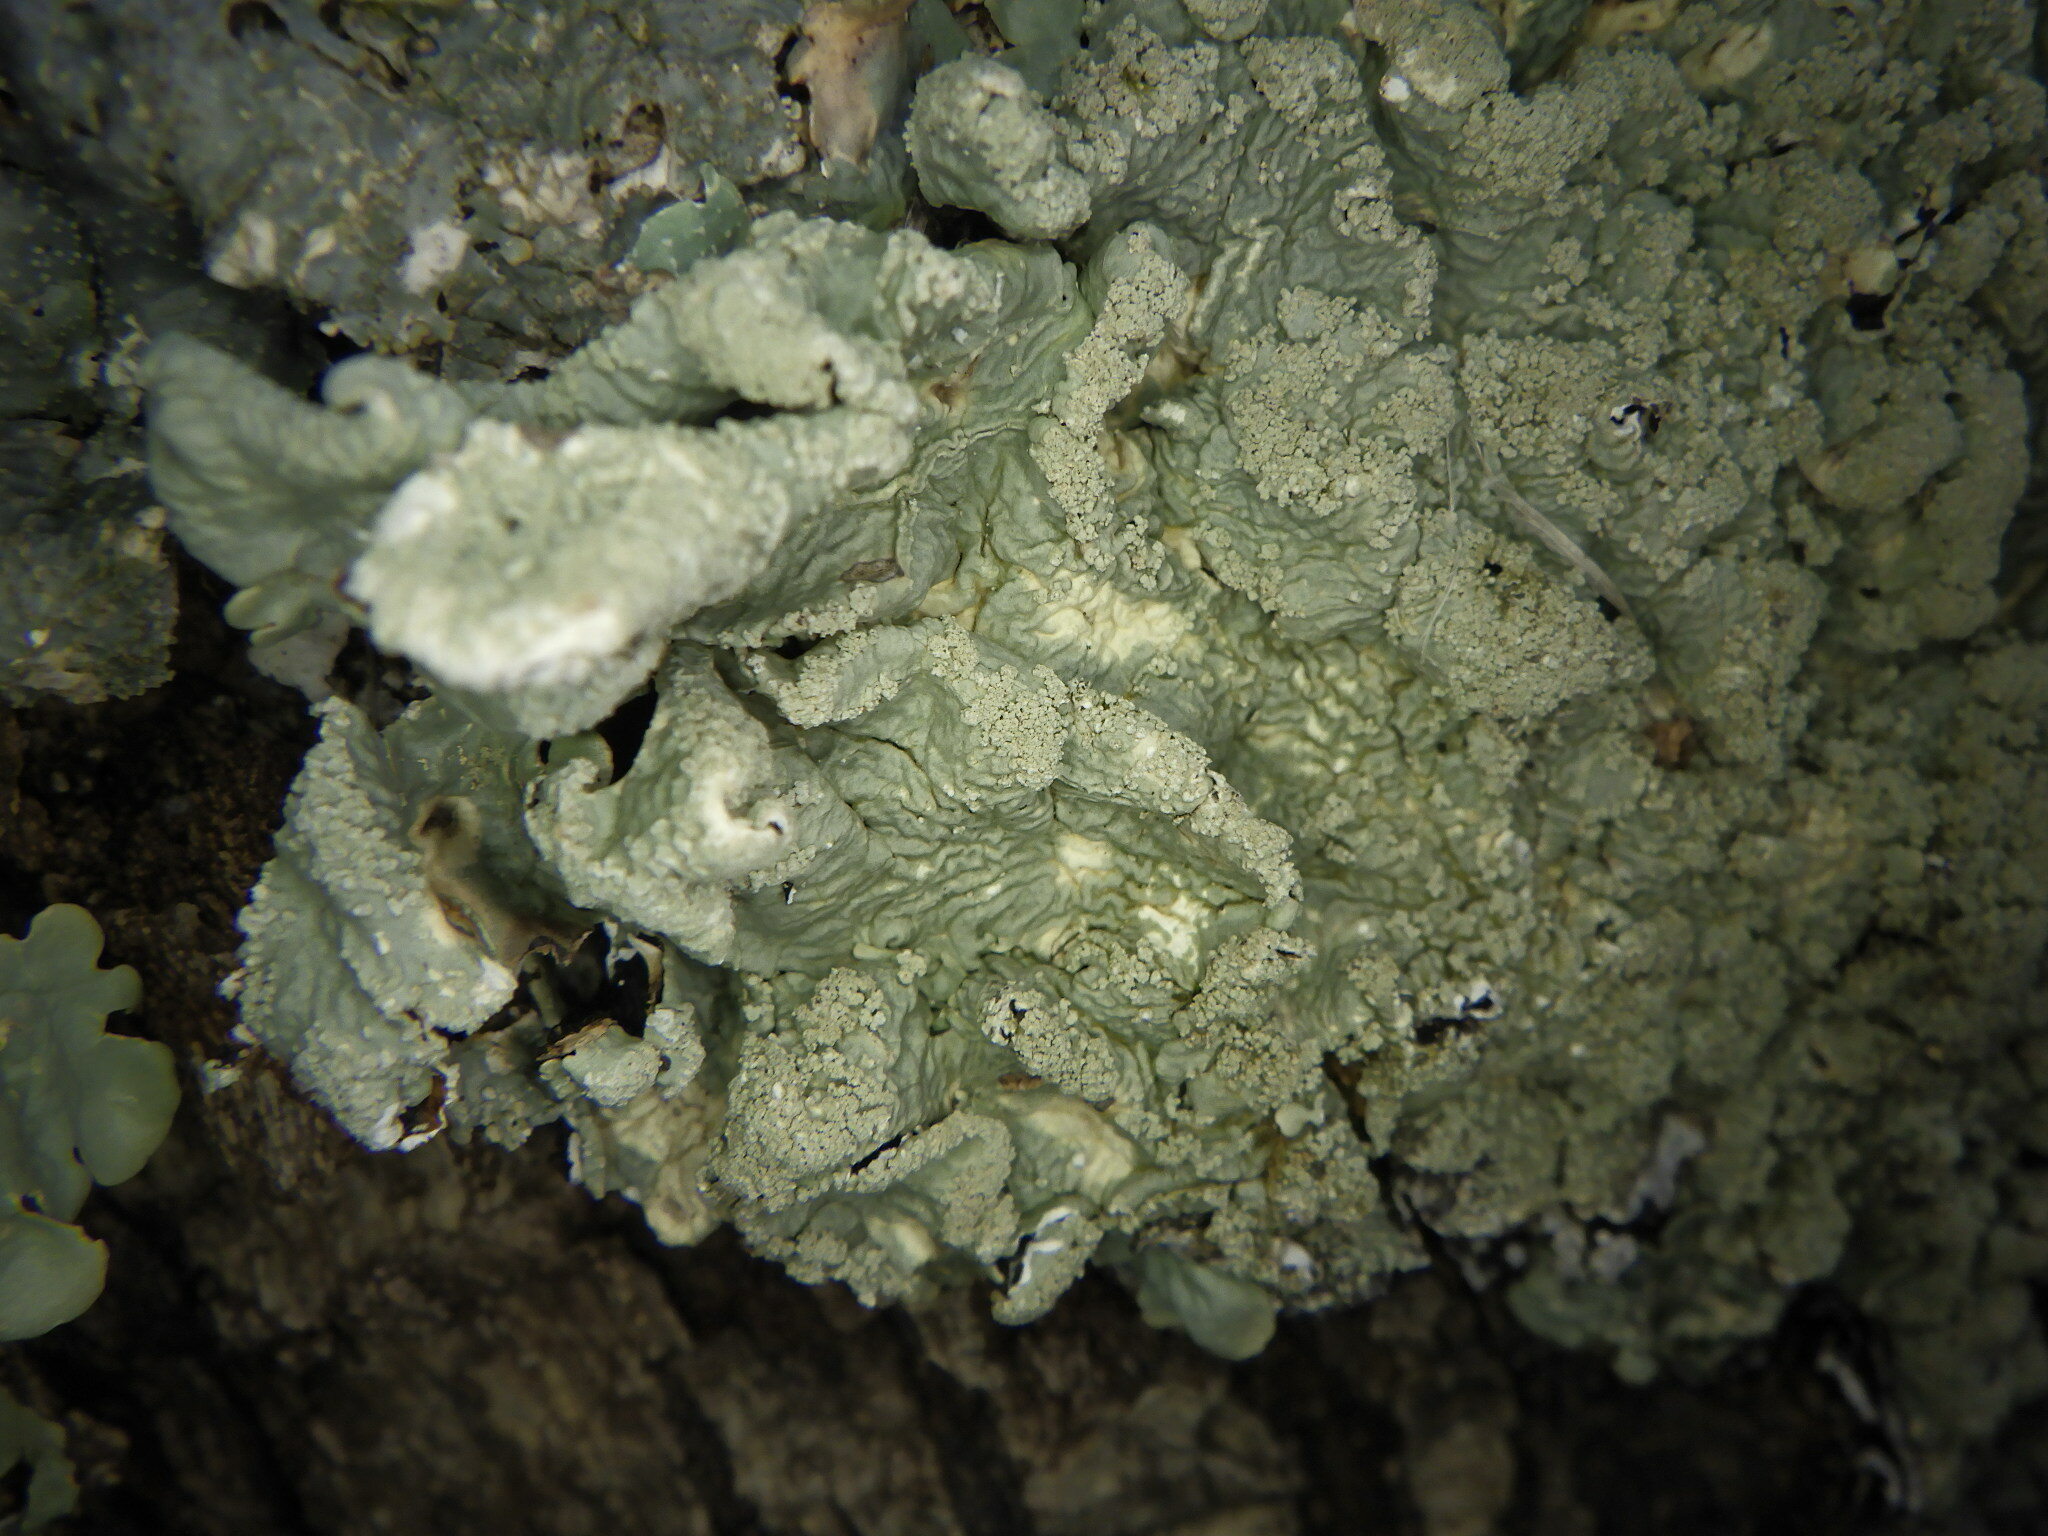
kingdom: Fungi
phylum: Ascomycota
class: Lecanoromycetes
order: Lecanorales
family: Parmeliaceae
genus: Flavoparmelia
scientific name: Flavoparmelia caperata
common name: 40-mile per hour lichen
